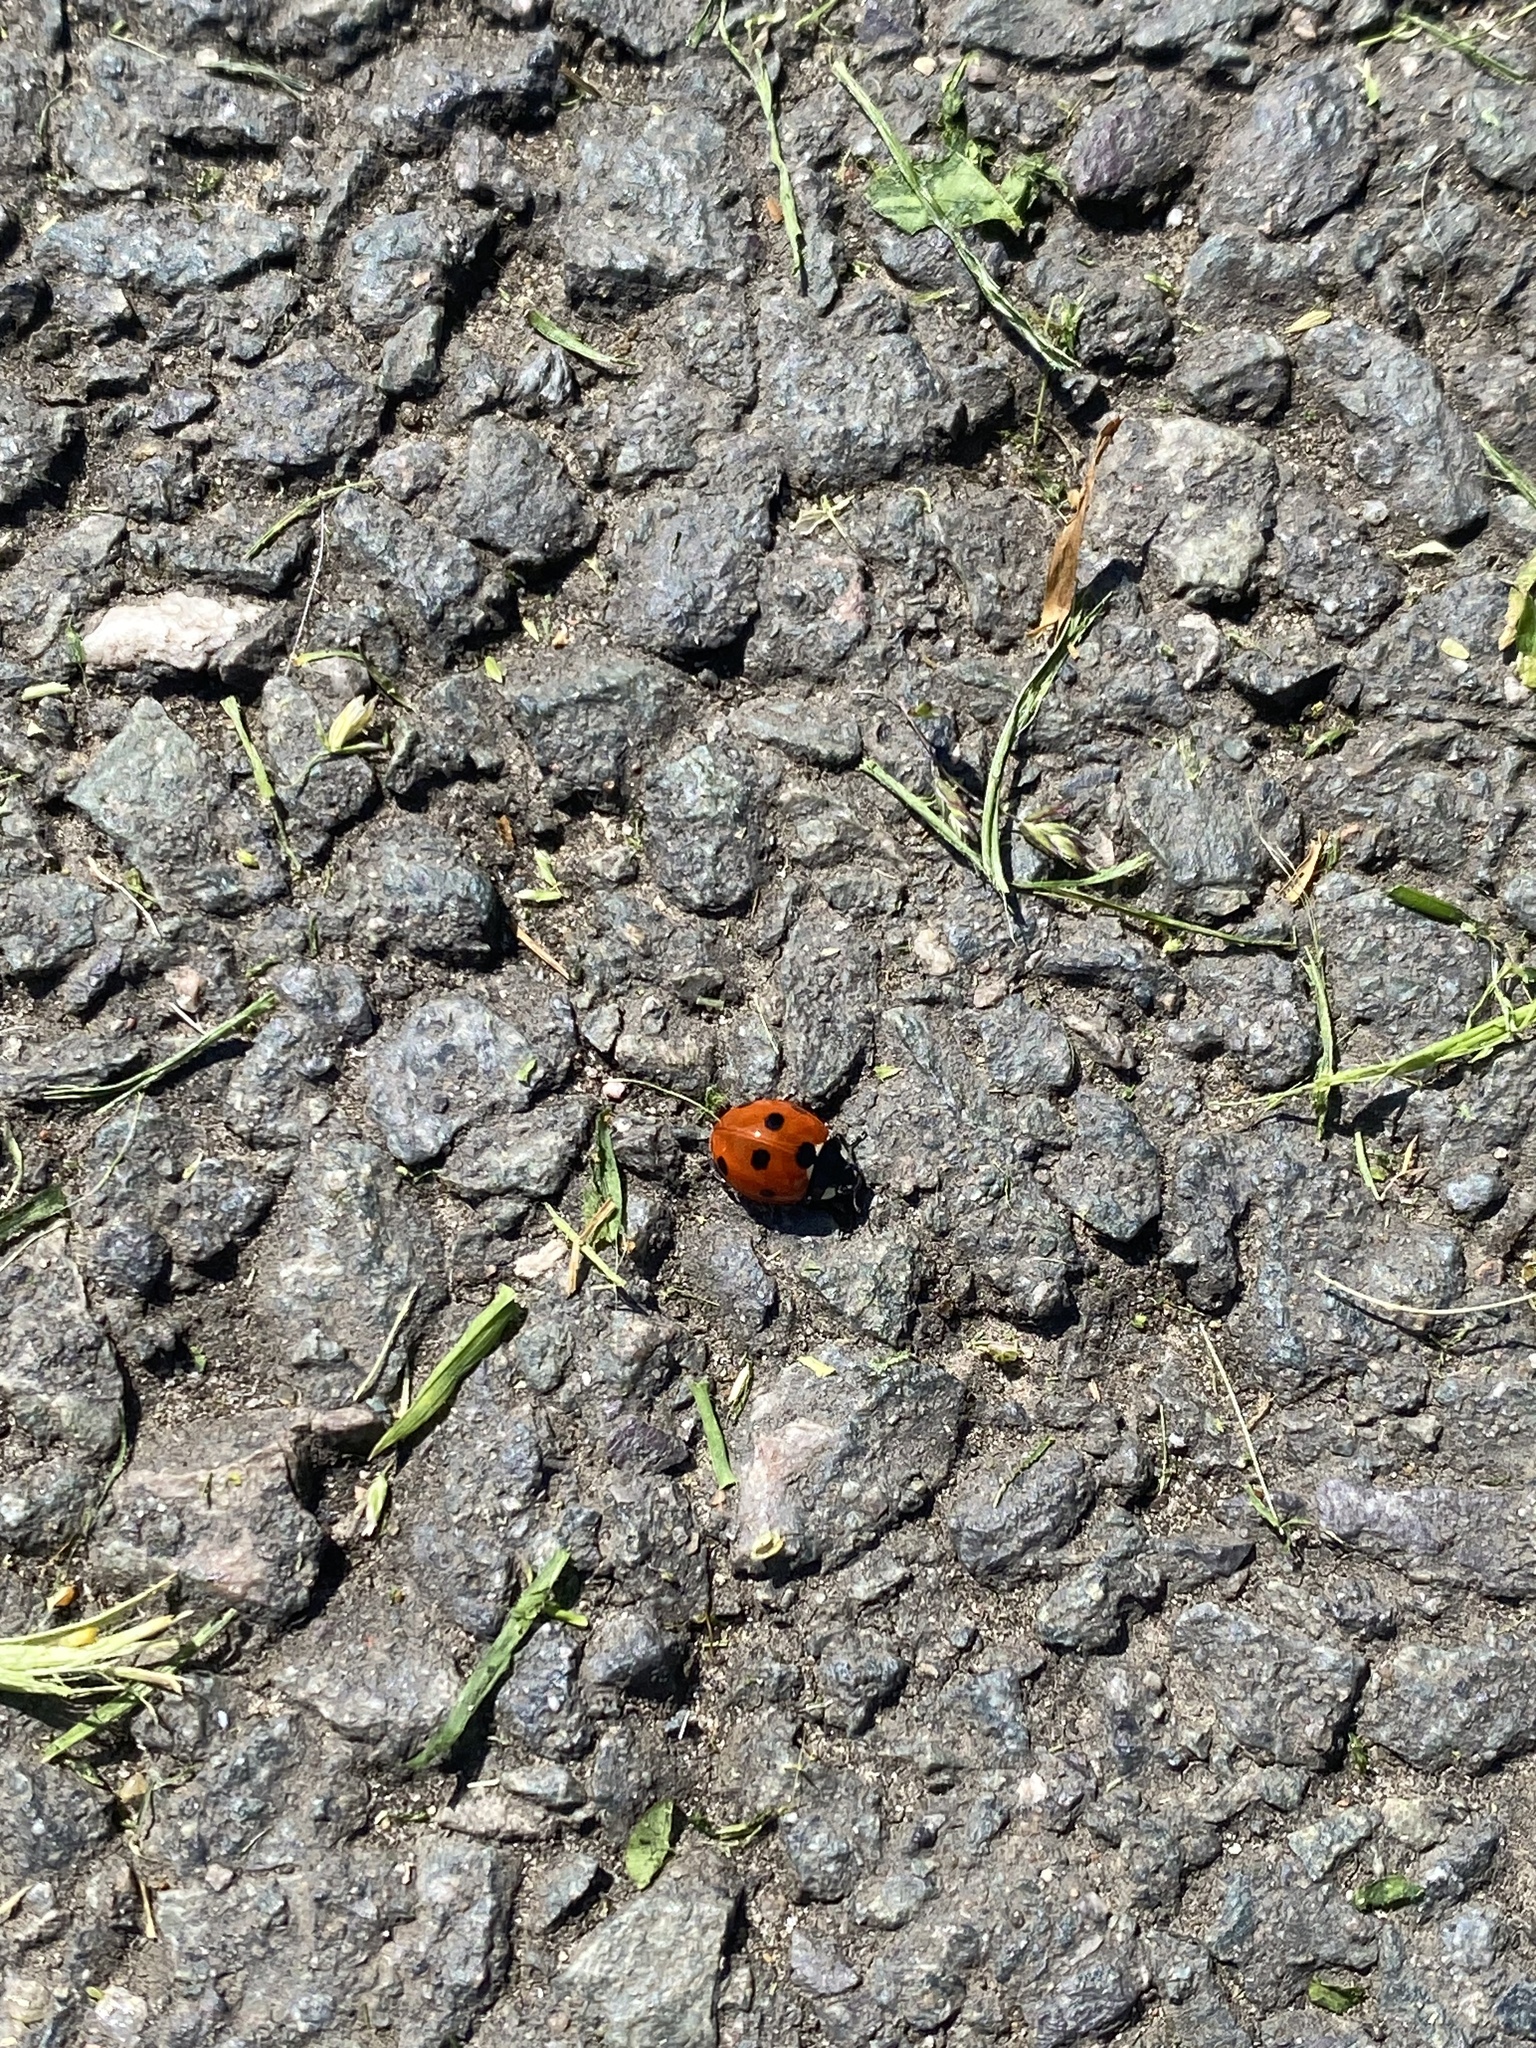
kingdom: Animalia
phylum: Arthropoda
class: Insecta
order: Coleoptera
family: Coccinellidae
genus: Coccinella
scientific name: Coccinella septempunctata
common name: Sevenspotted lady beetle
